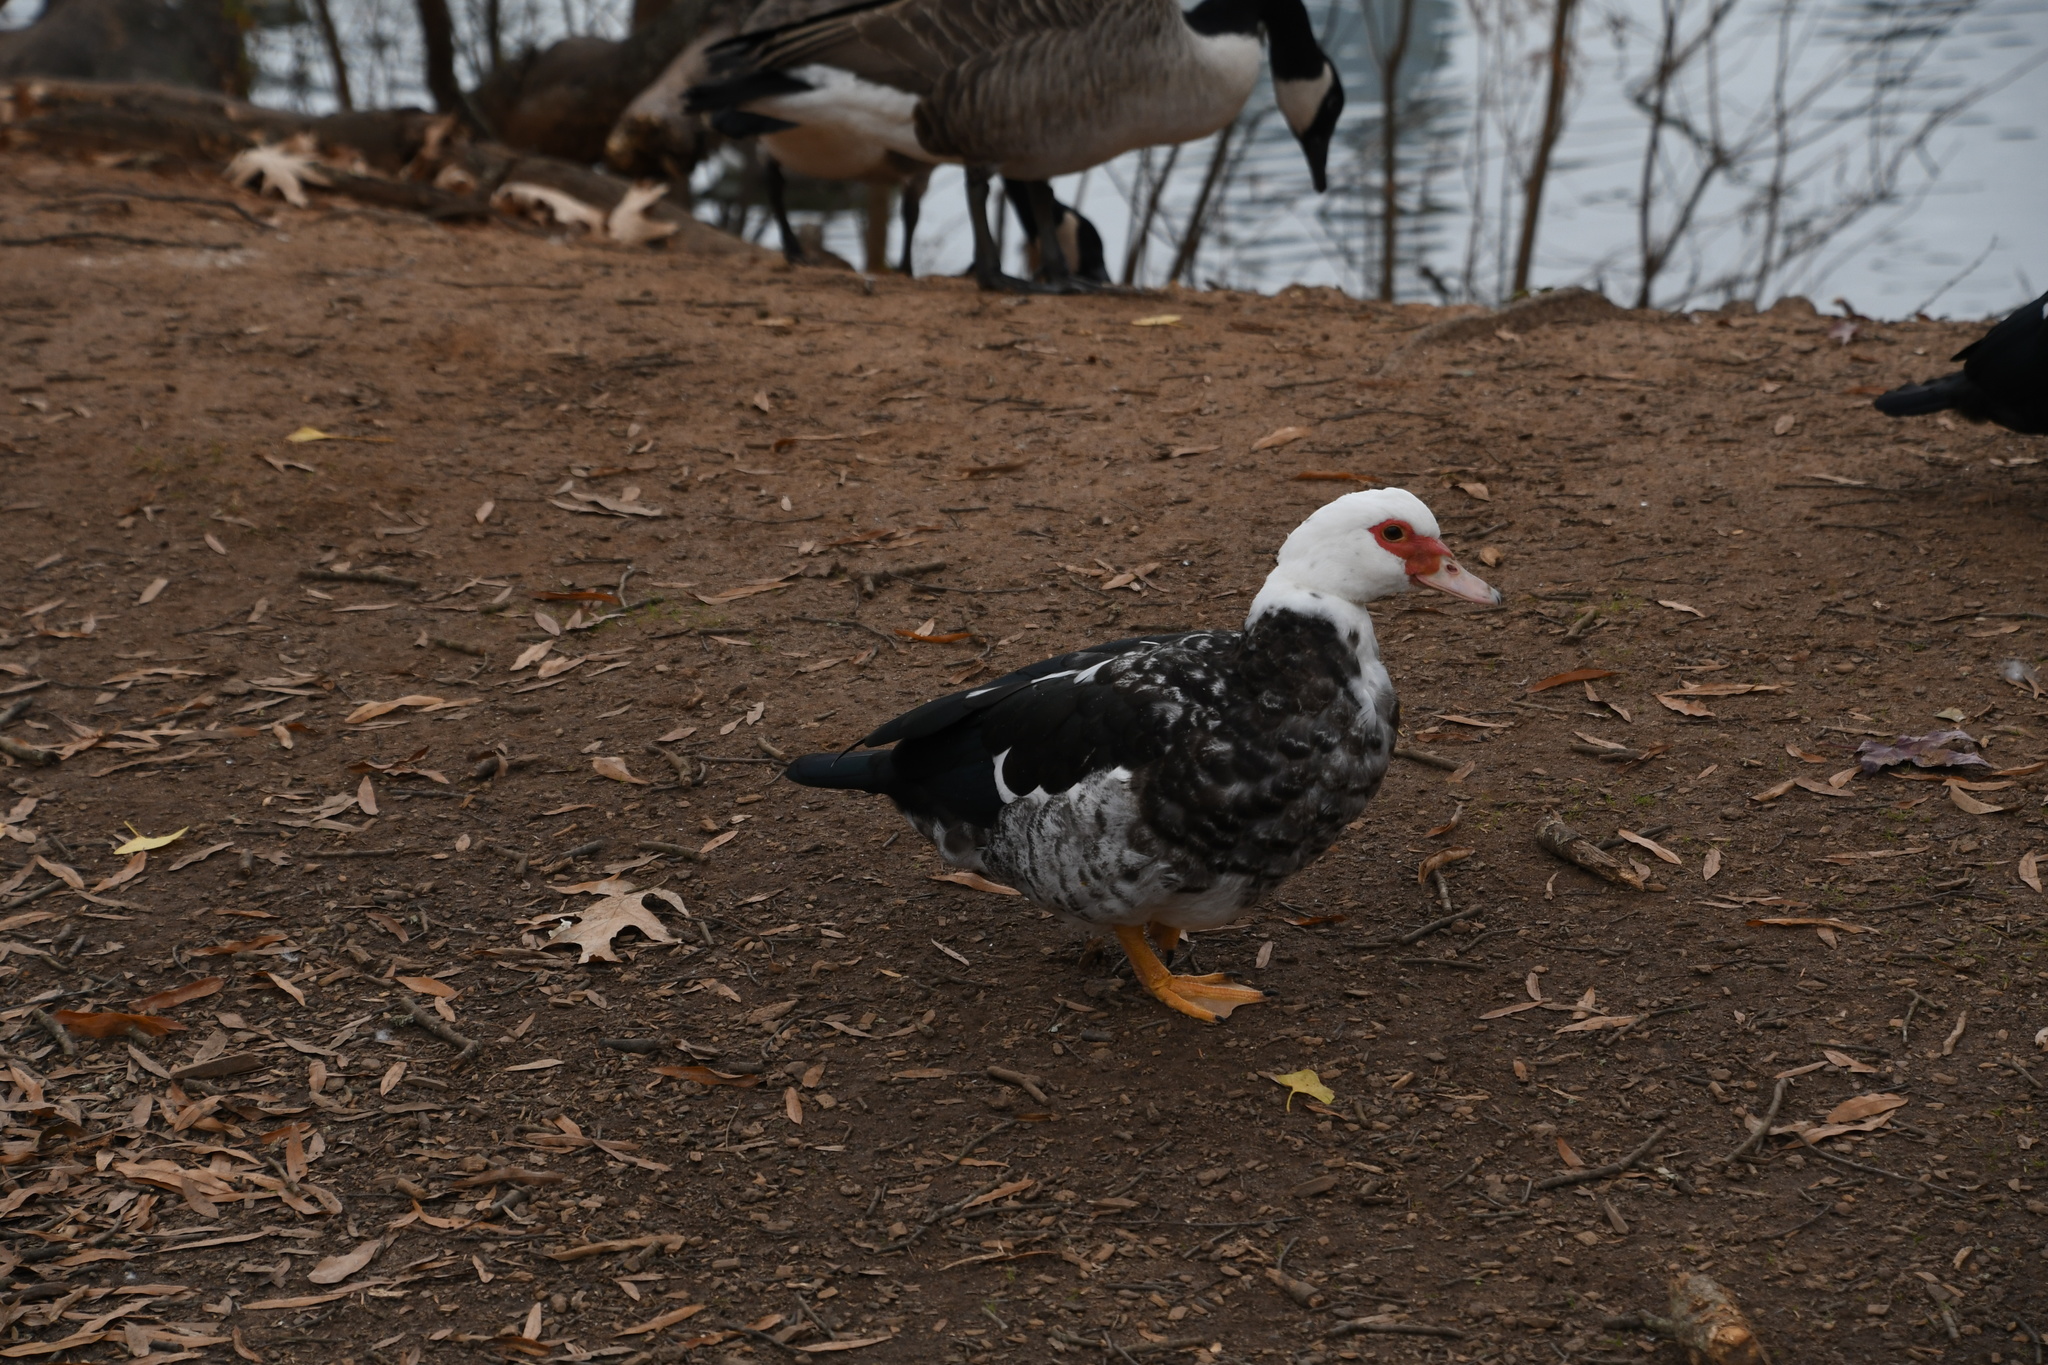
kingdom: Animalia
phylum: Chordata
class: Aves
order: Anseriformes
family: Anatidae
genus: Cairina
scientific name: Cairina moschata
